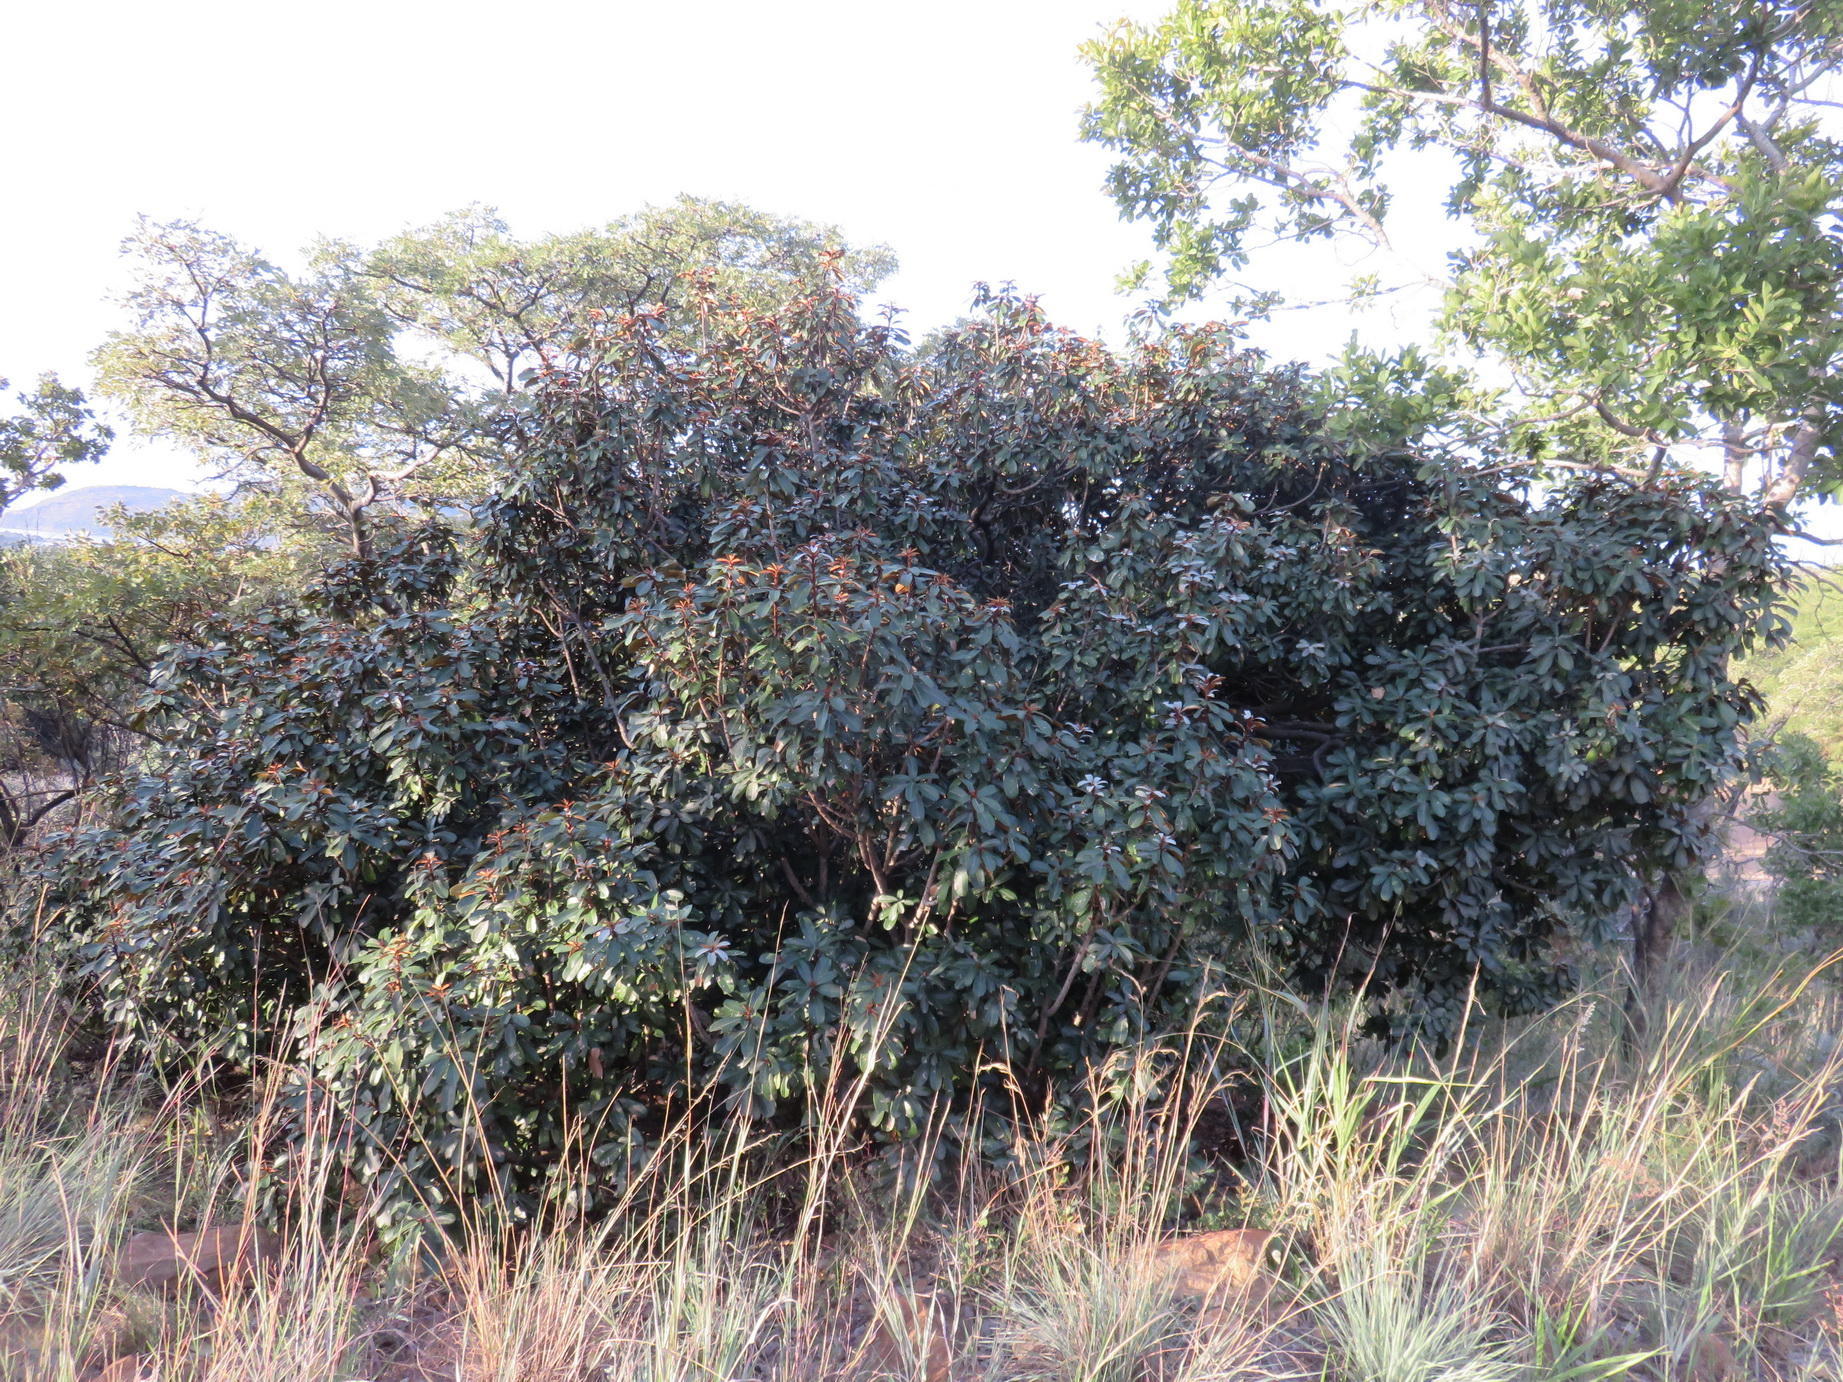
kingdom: Plantae
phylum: Tracheophyta
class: Magnoliopsida
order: Ericales
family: Sapotaceae
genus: Englerophytum
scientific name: Englerophytum magalismontanum
